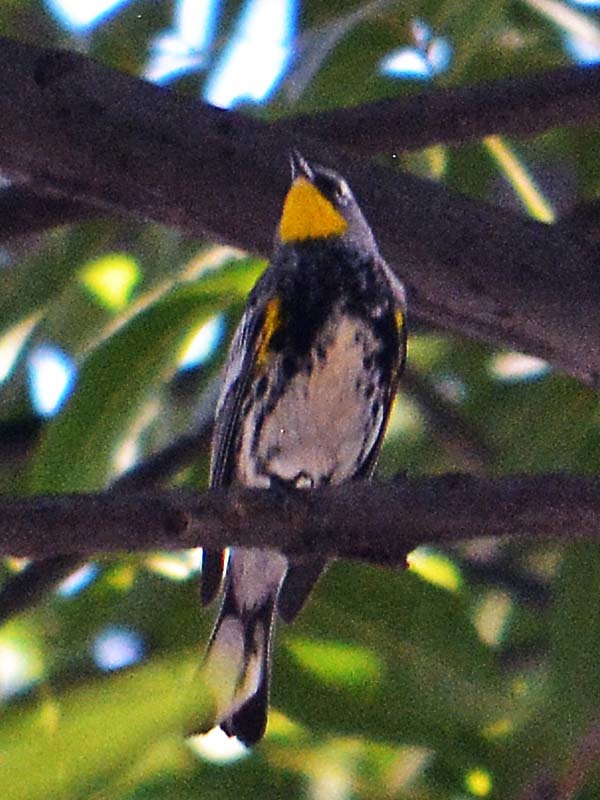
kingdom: Animalia
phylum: Chordata
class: Aves
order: Passeriformes
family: Parulidae
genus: Setophaga
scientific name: Setophaga auduboni
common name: Audubon's warbler
